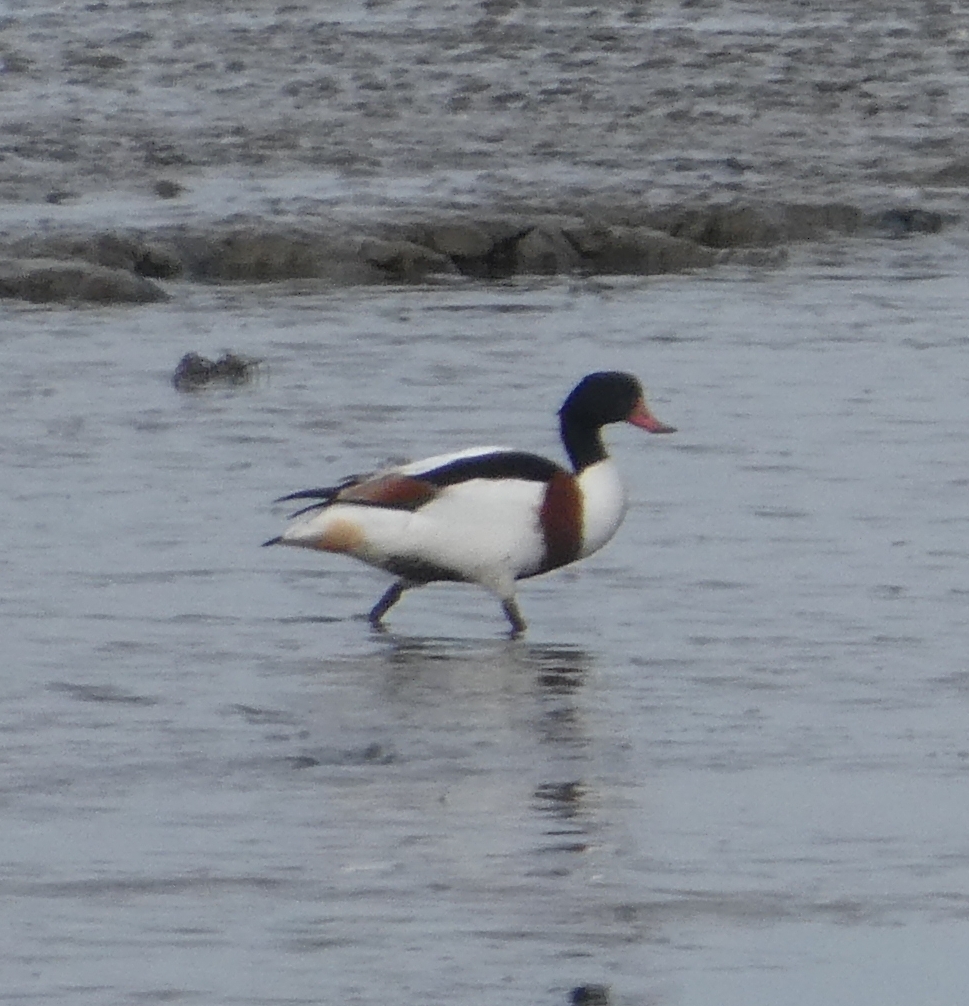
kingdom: Animalia
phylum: Chordata
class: Aves
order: Anseriformes
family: Anatidae
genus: Tadorna
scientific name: Tadorna tadorna
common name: Common shelduck
